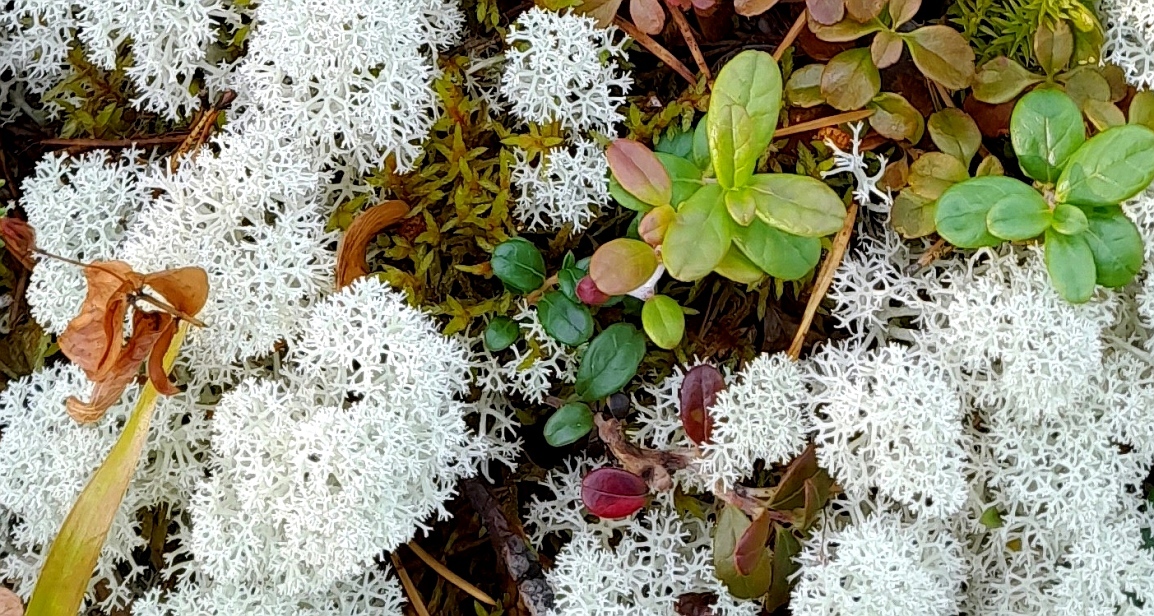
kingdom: Fungi
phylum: Ascomycota
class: Lecanoromycetes
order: Lecanorales
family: Cladoniaceae
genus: Cladonia
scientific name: Cladonia stellaris
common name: Star-tipped reindeer lichen
